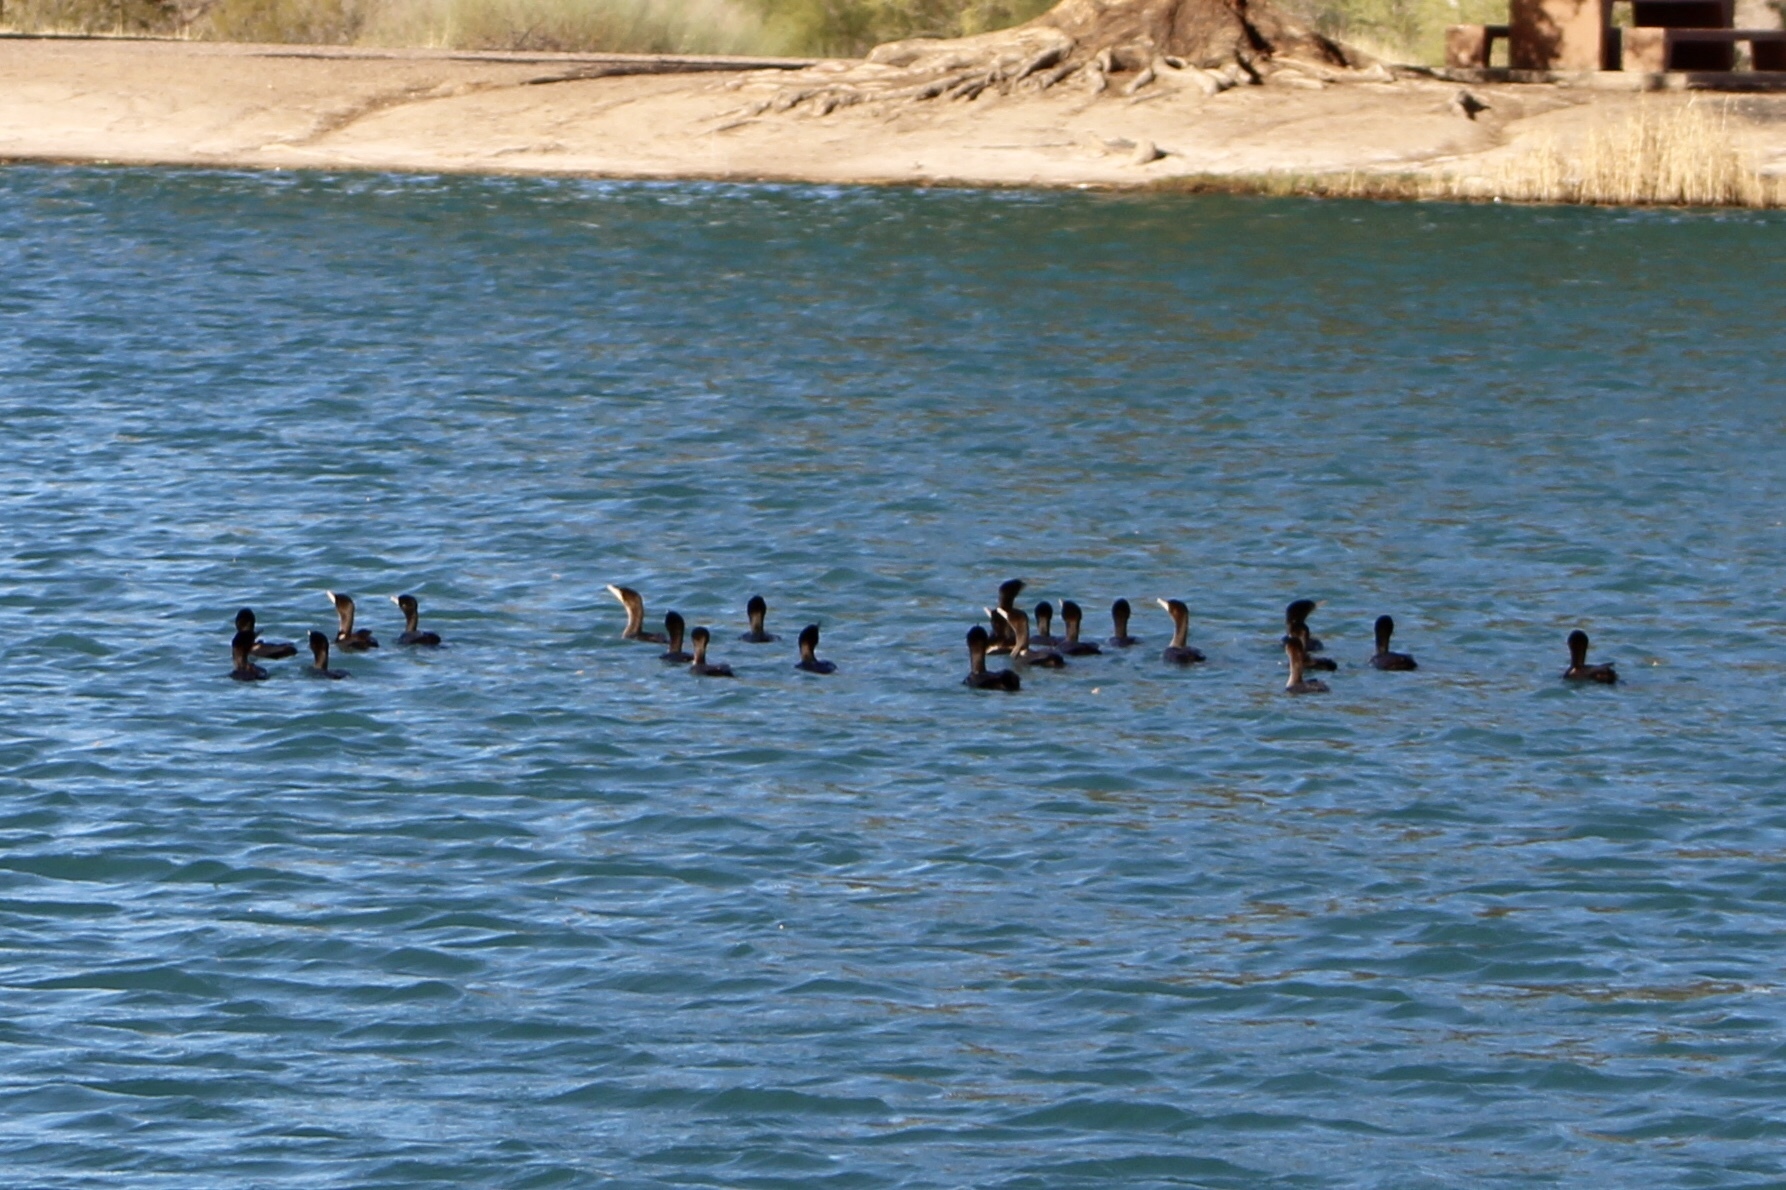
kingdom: Animalia
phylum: Chordata
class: Aves
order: Suliformes
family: Phalacrocoracidae
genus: Phalacrocorax
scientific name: Phalacrocorax brasilianus
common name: Neotropic cormorant
